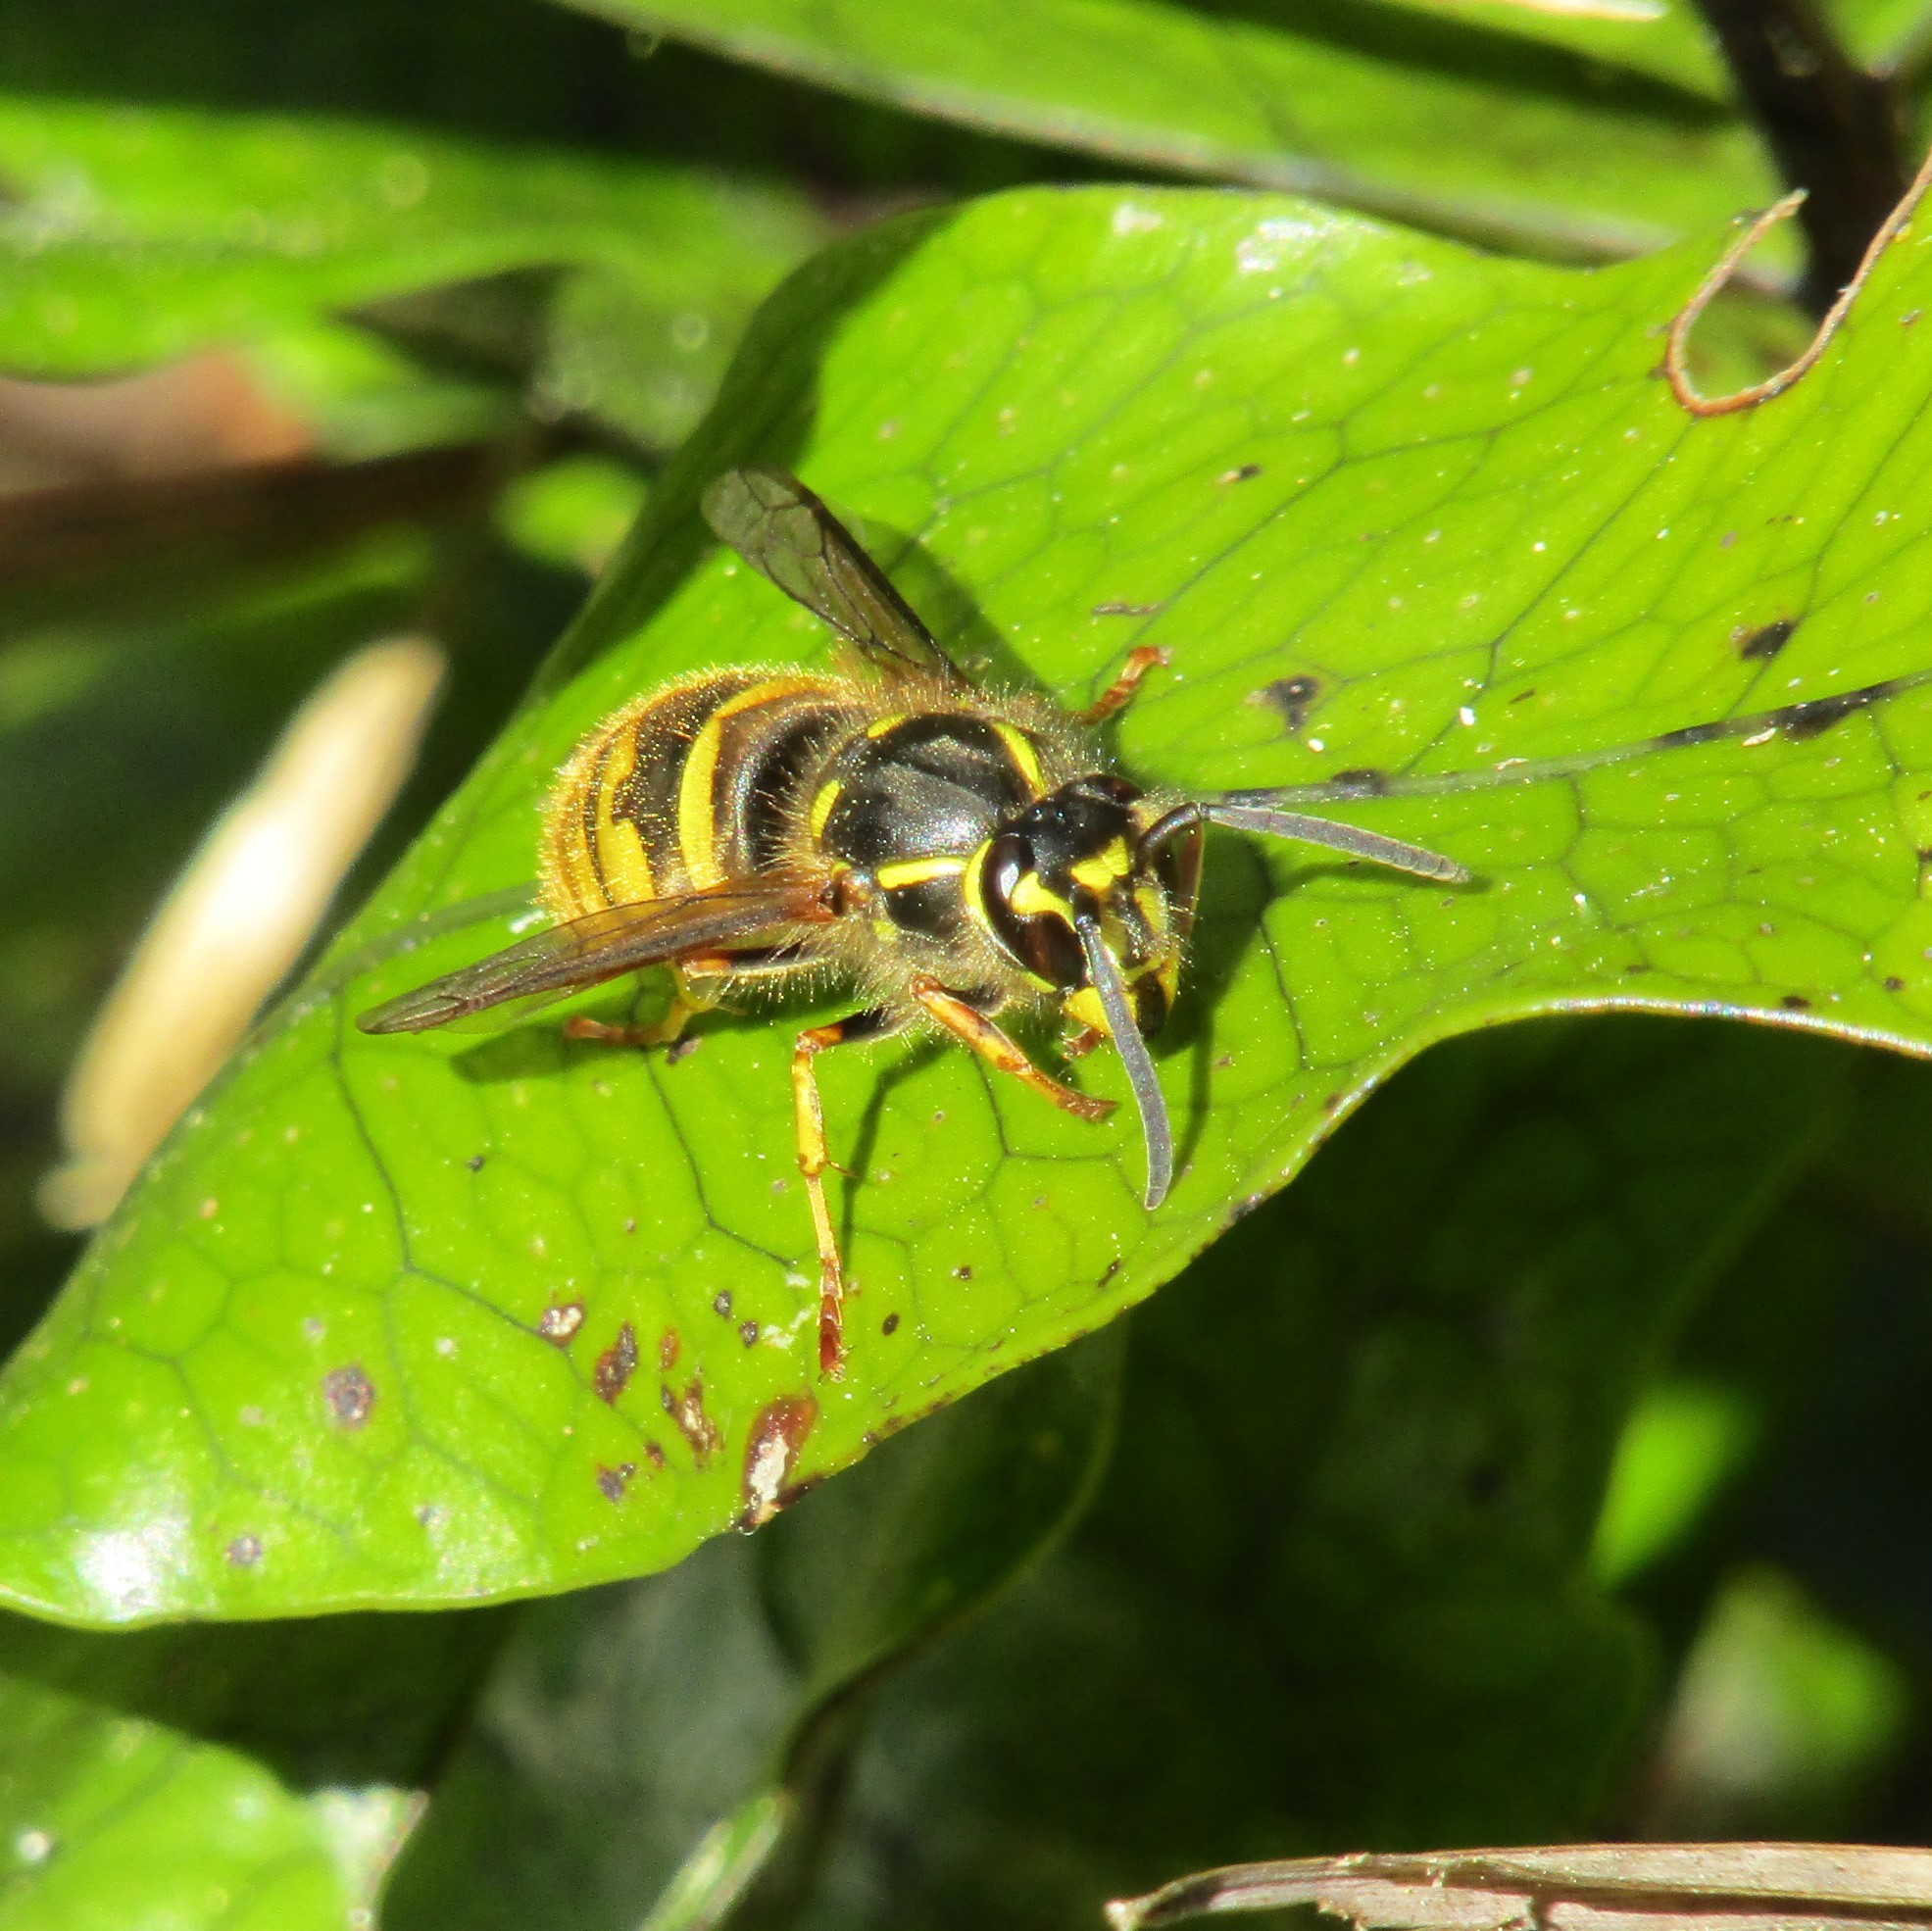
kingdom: Animalia
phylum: Arthropoda
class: Insecta
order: Hymenoptera
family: Vespidae
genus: Vespula
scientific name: Vespula vulgaris
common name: Common wasp
